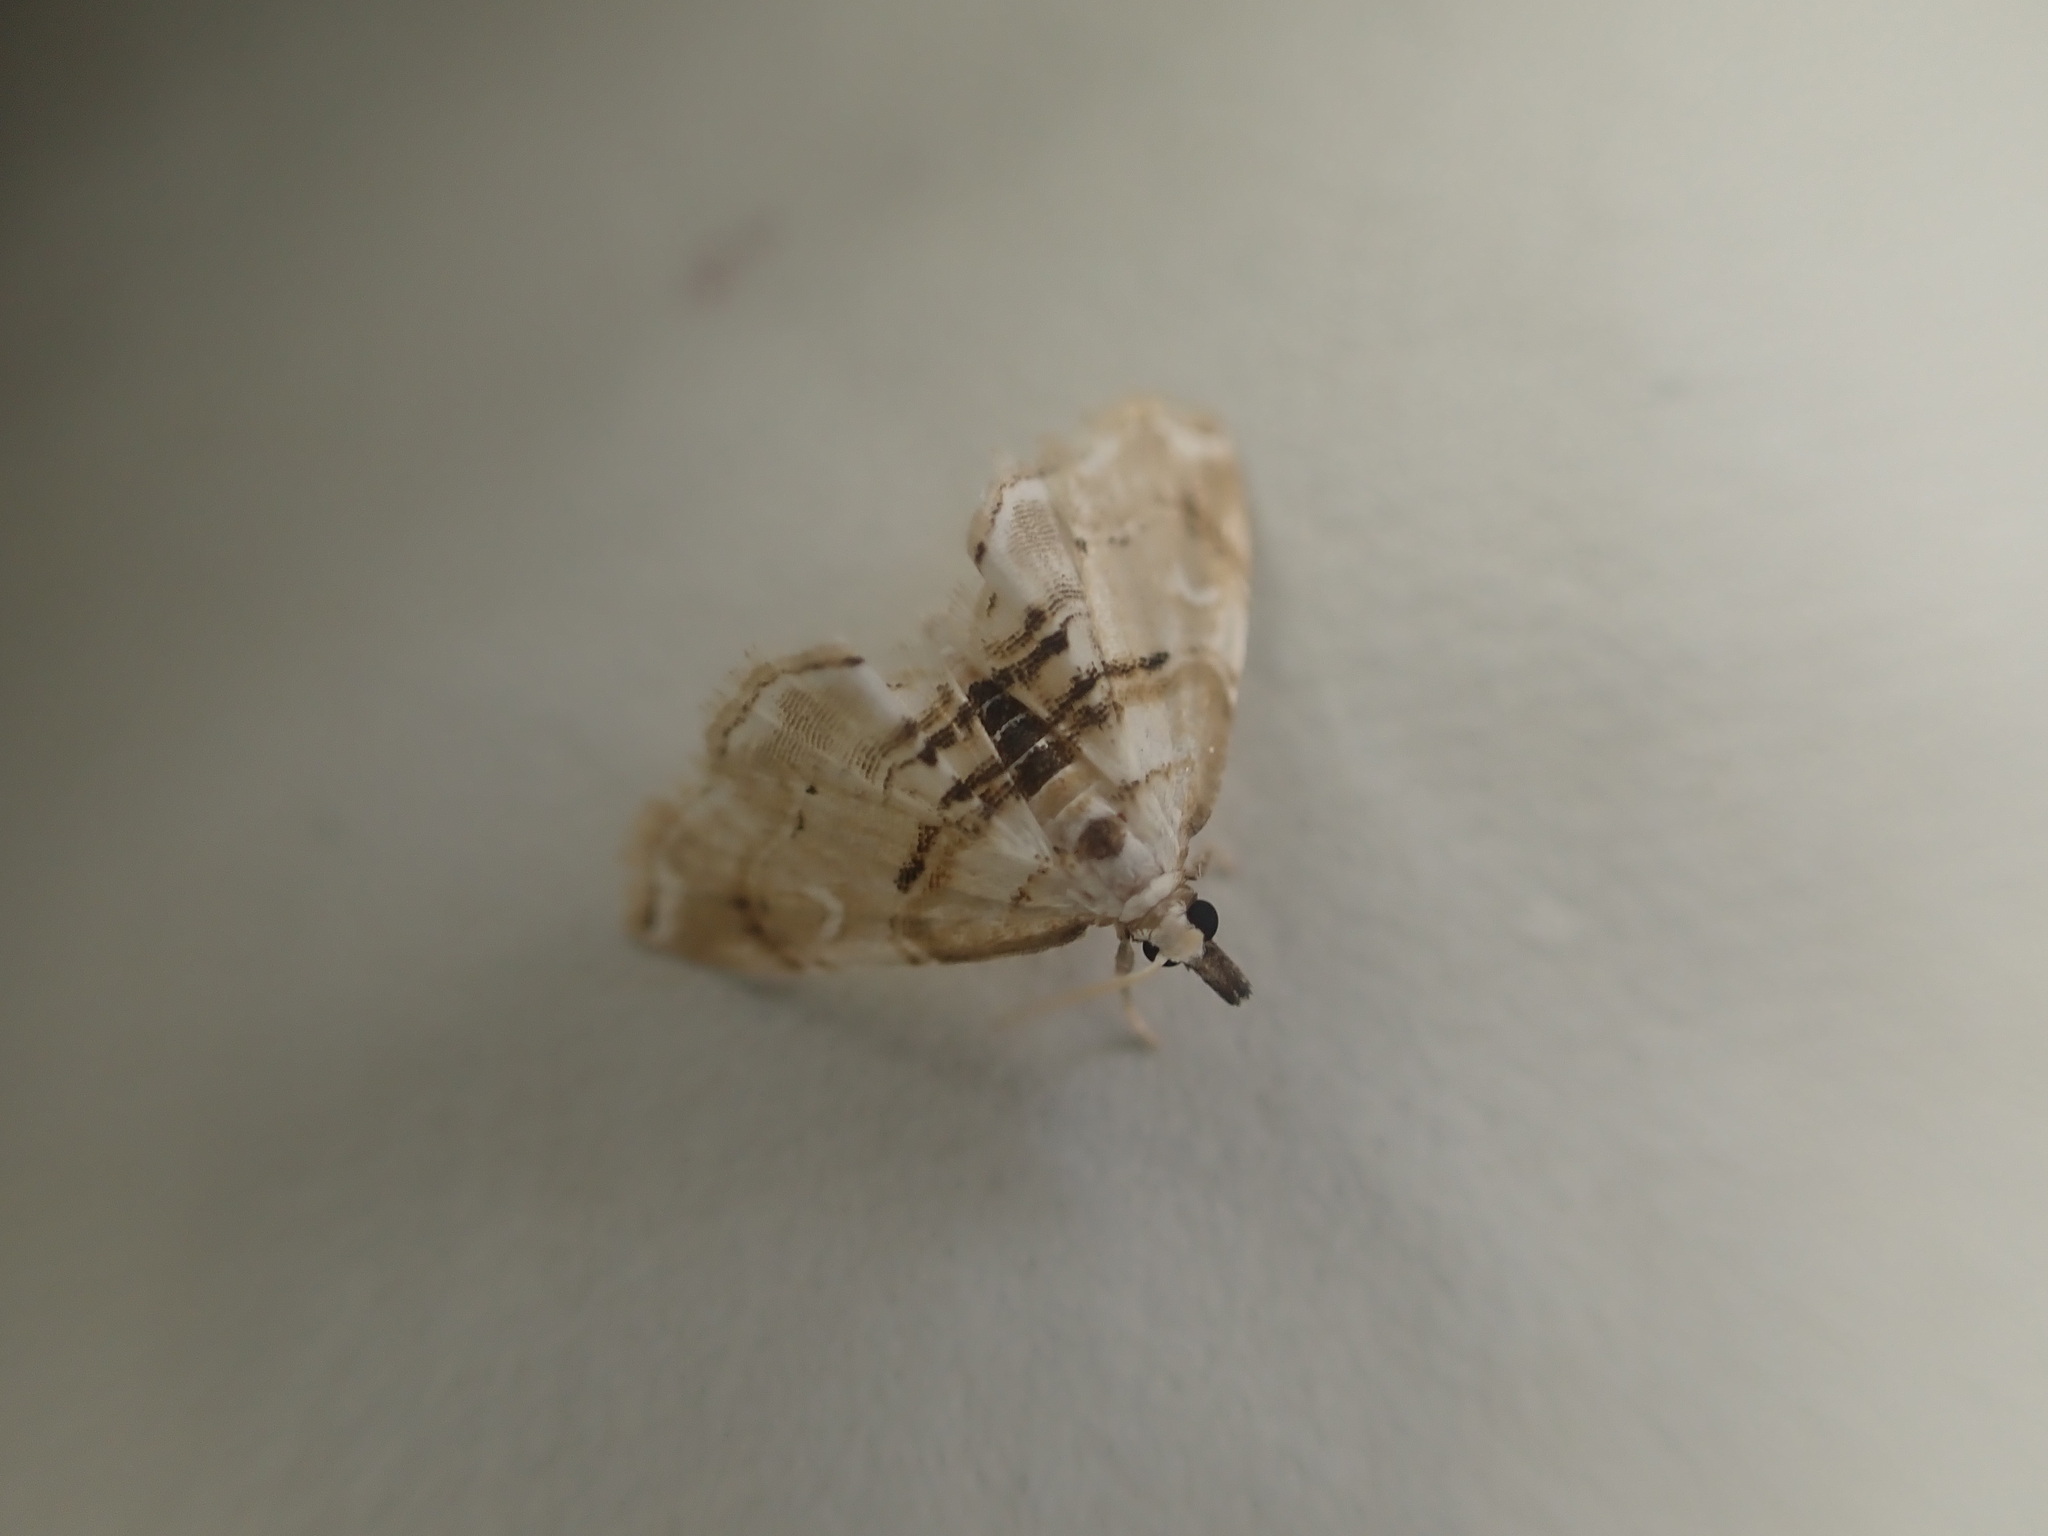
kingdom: Animalia
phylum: Arthropoda
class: Insecta
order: Lepidoptera
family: Crambidae
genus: Trichophysetis
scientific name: Trichophysetis
